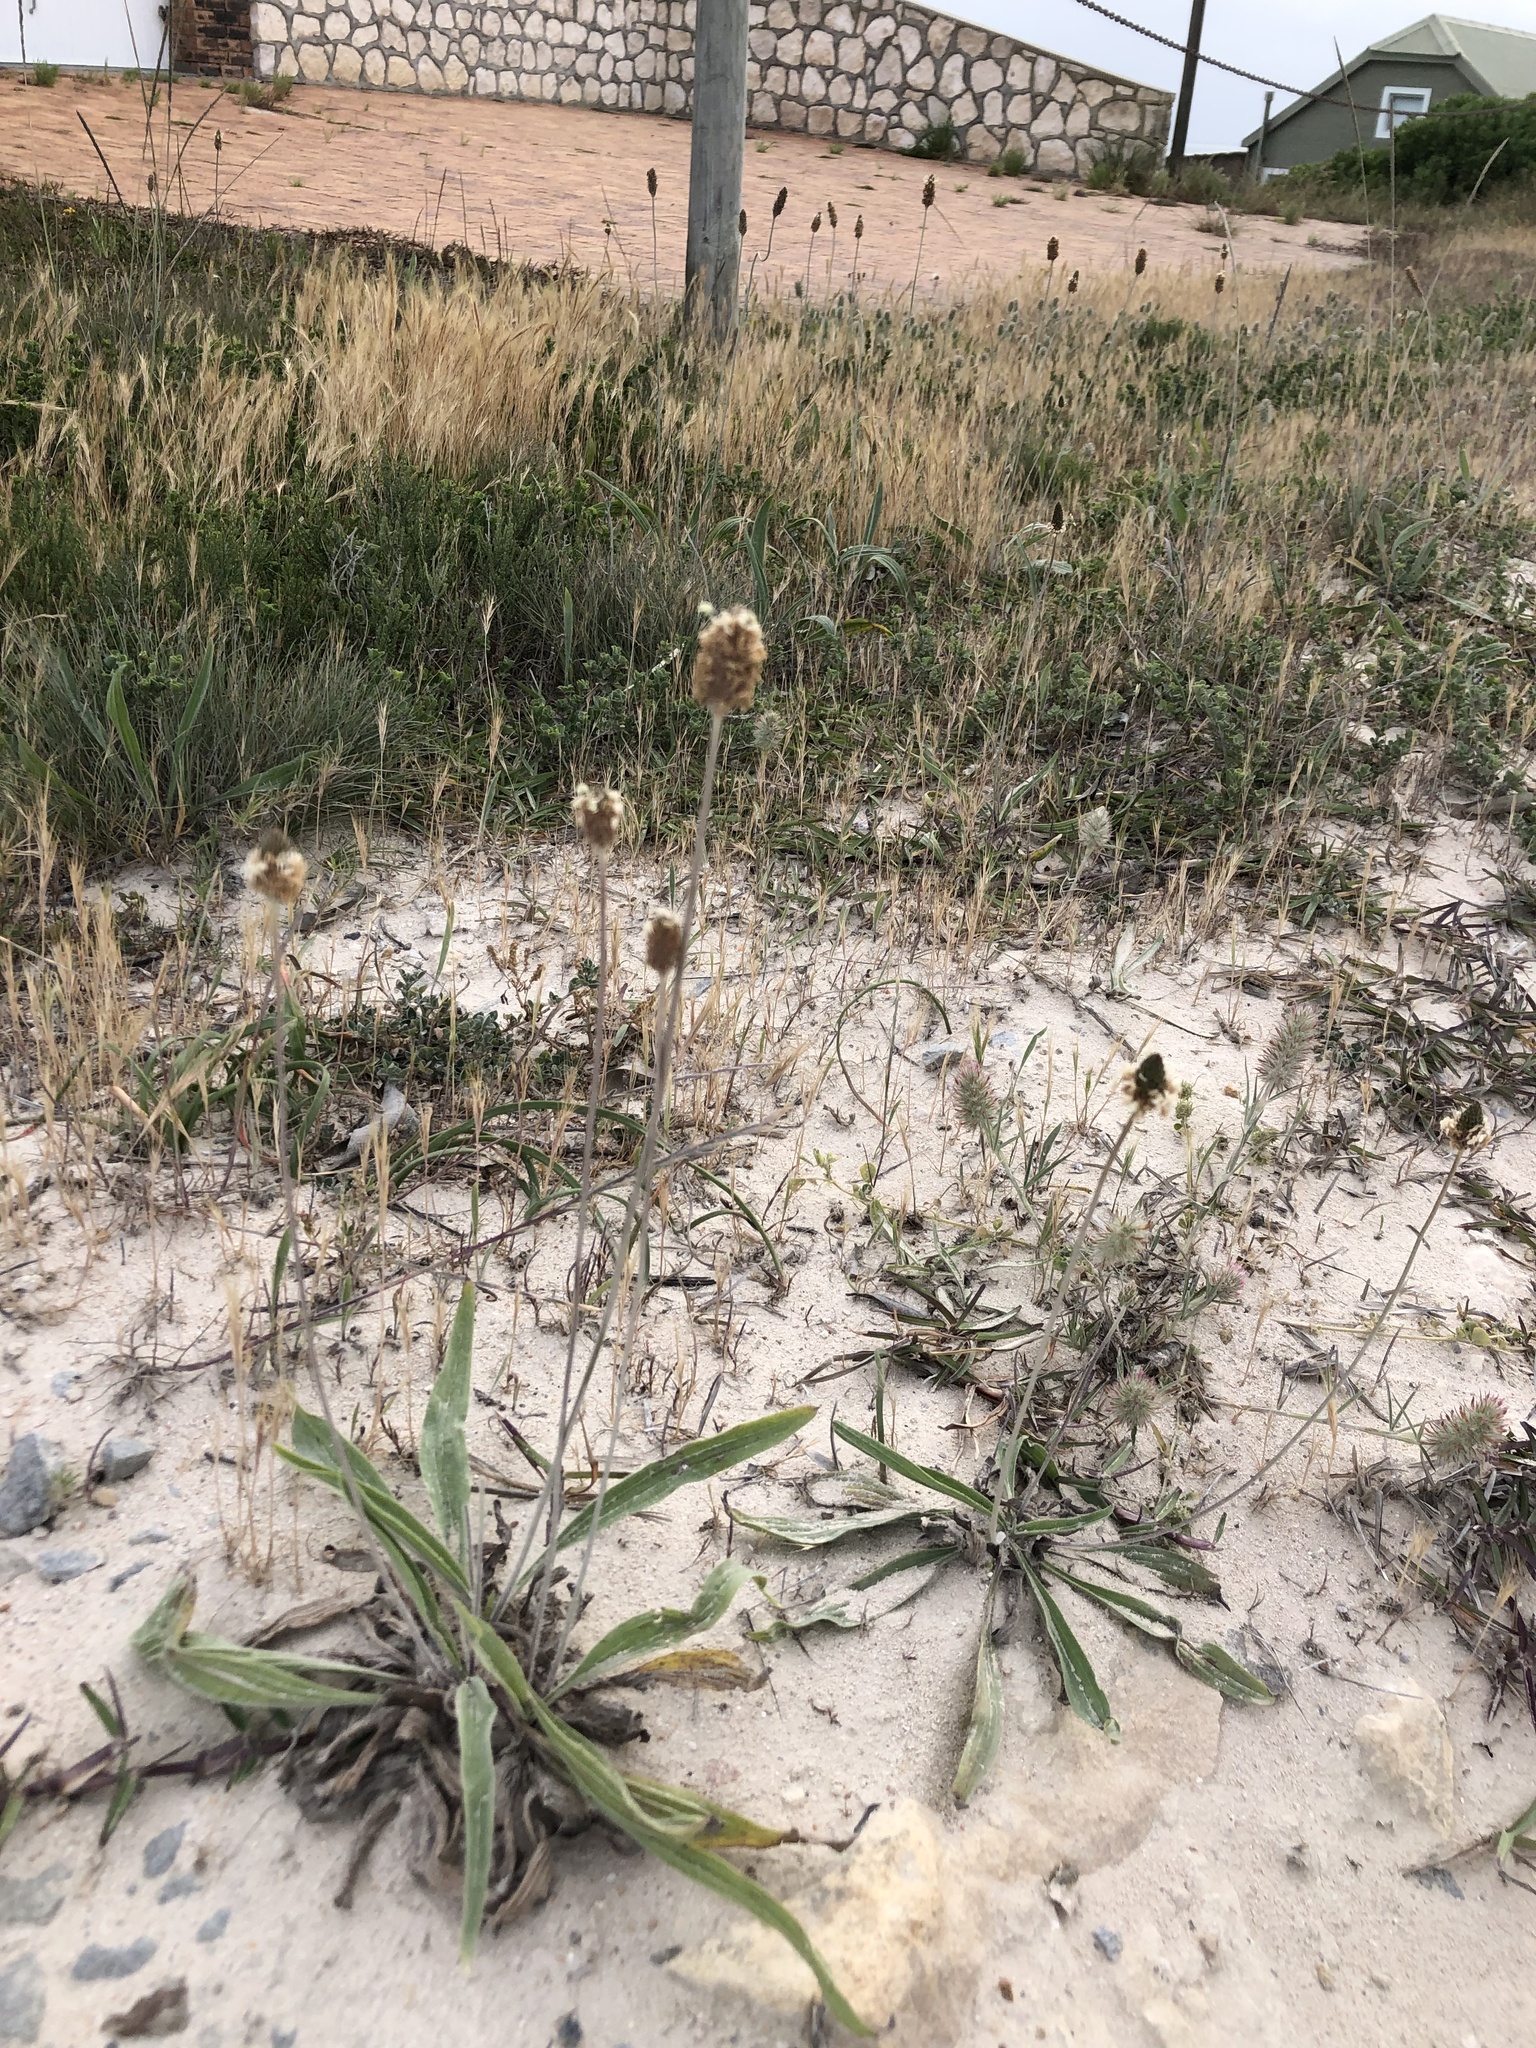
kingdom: Plantae
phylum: Tracheophyta
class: Magnoliopsida
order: Lamiales
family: Plantaginaceae
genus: Plantago
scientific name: Plantago lanceolata
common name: Ribwort plantain
